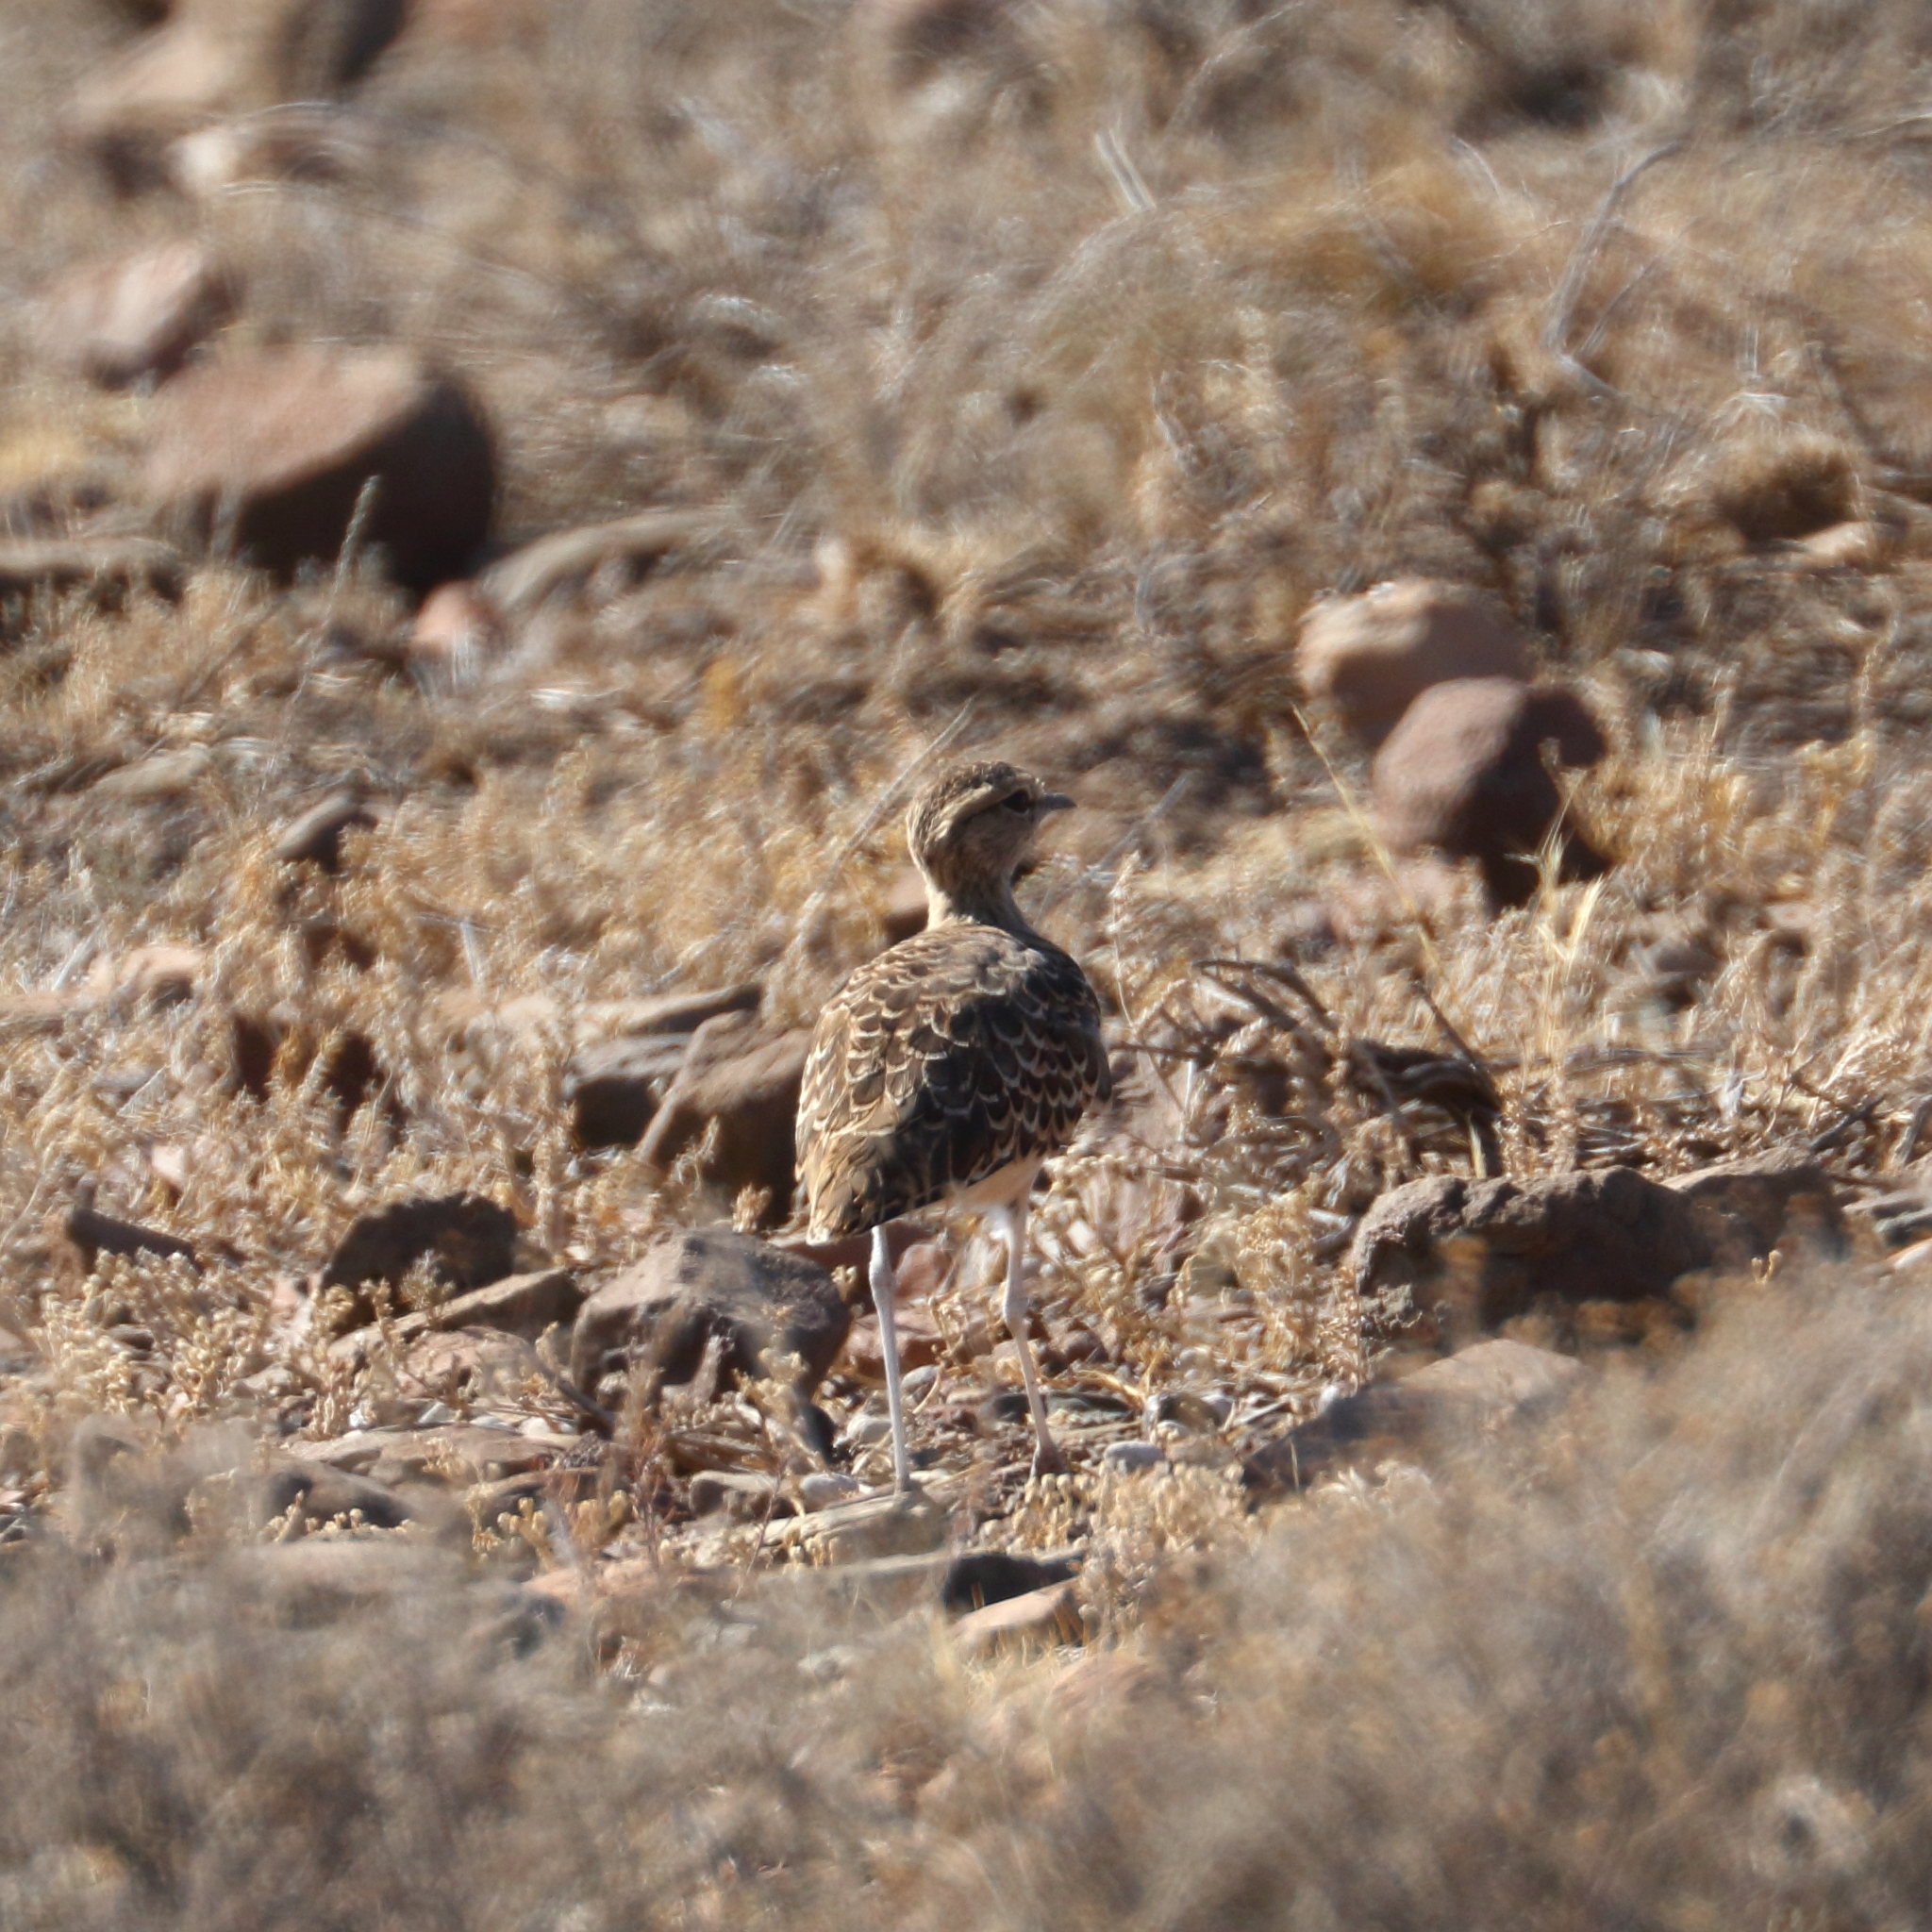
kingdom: Animalia
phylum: Chordata
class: Aves
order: Charadriiformes
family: Glareolidae
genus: Rhinoptilus
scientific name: Rhinoptilus africanus
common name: Double-banded courser
